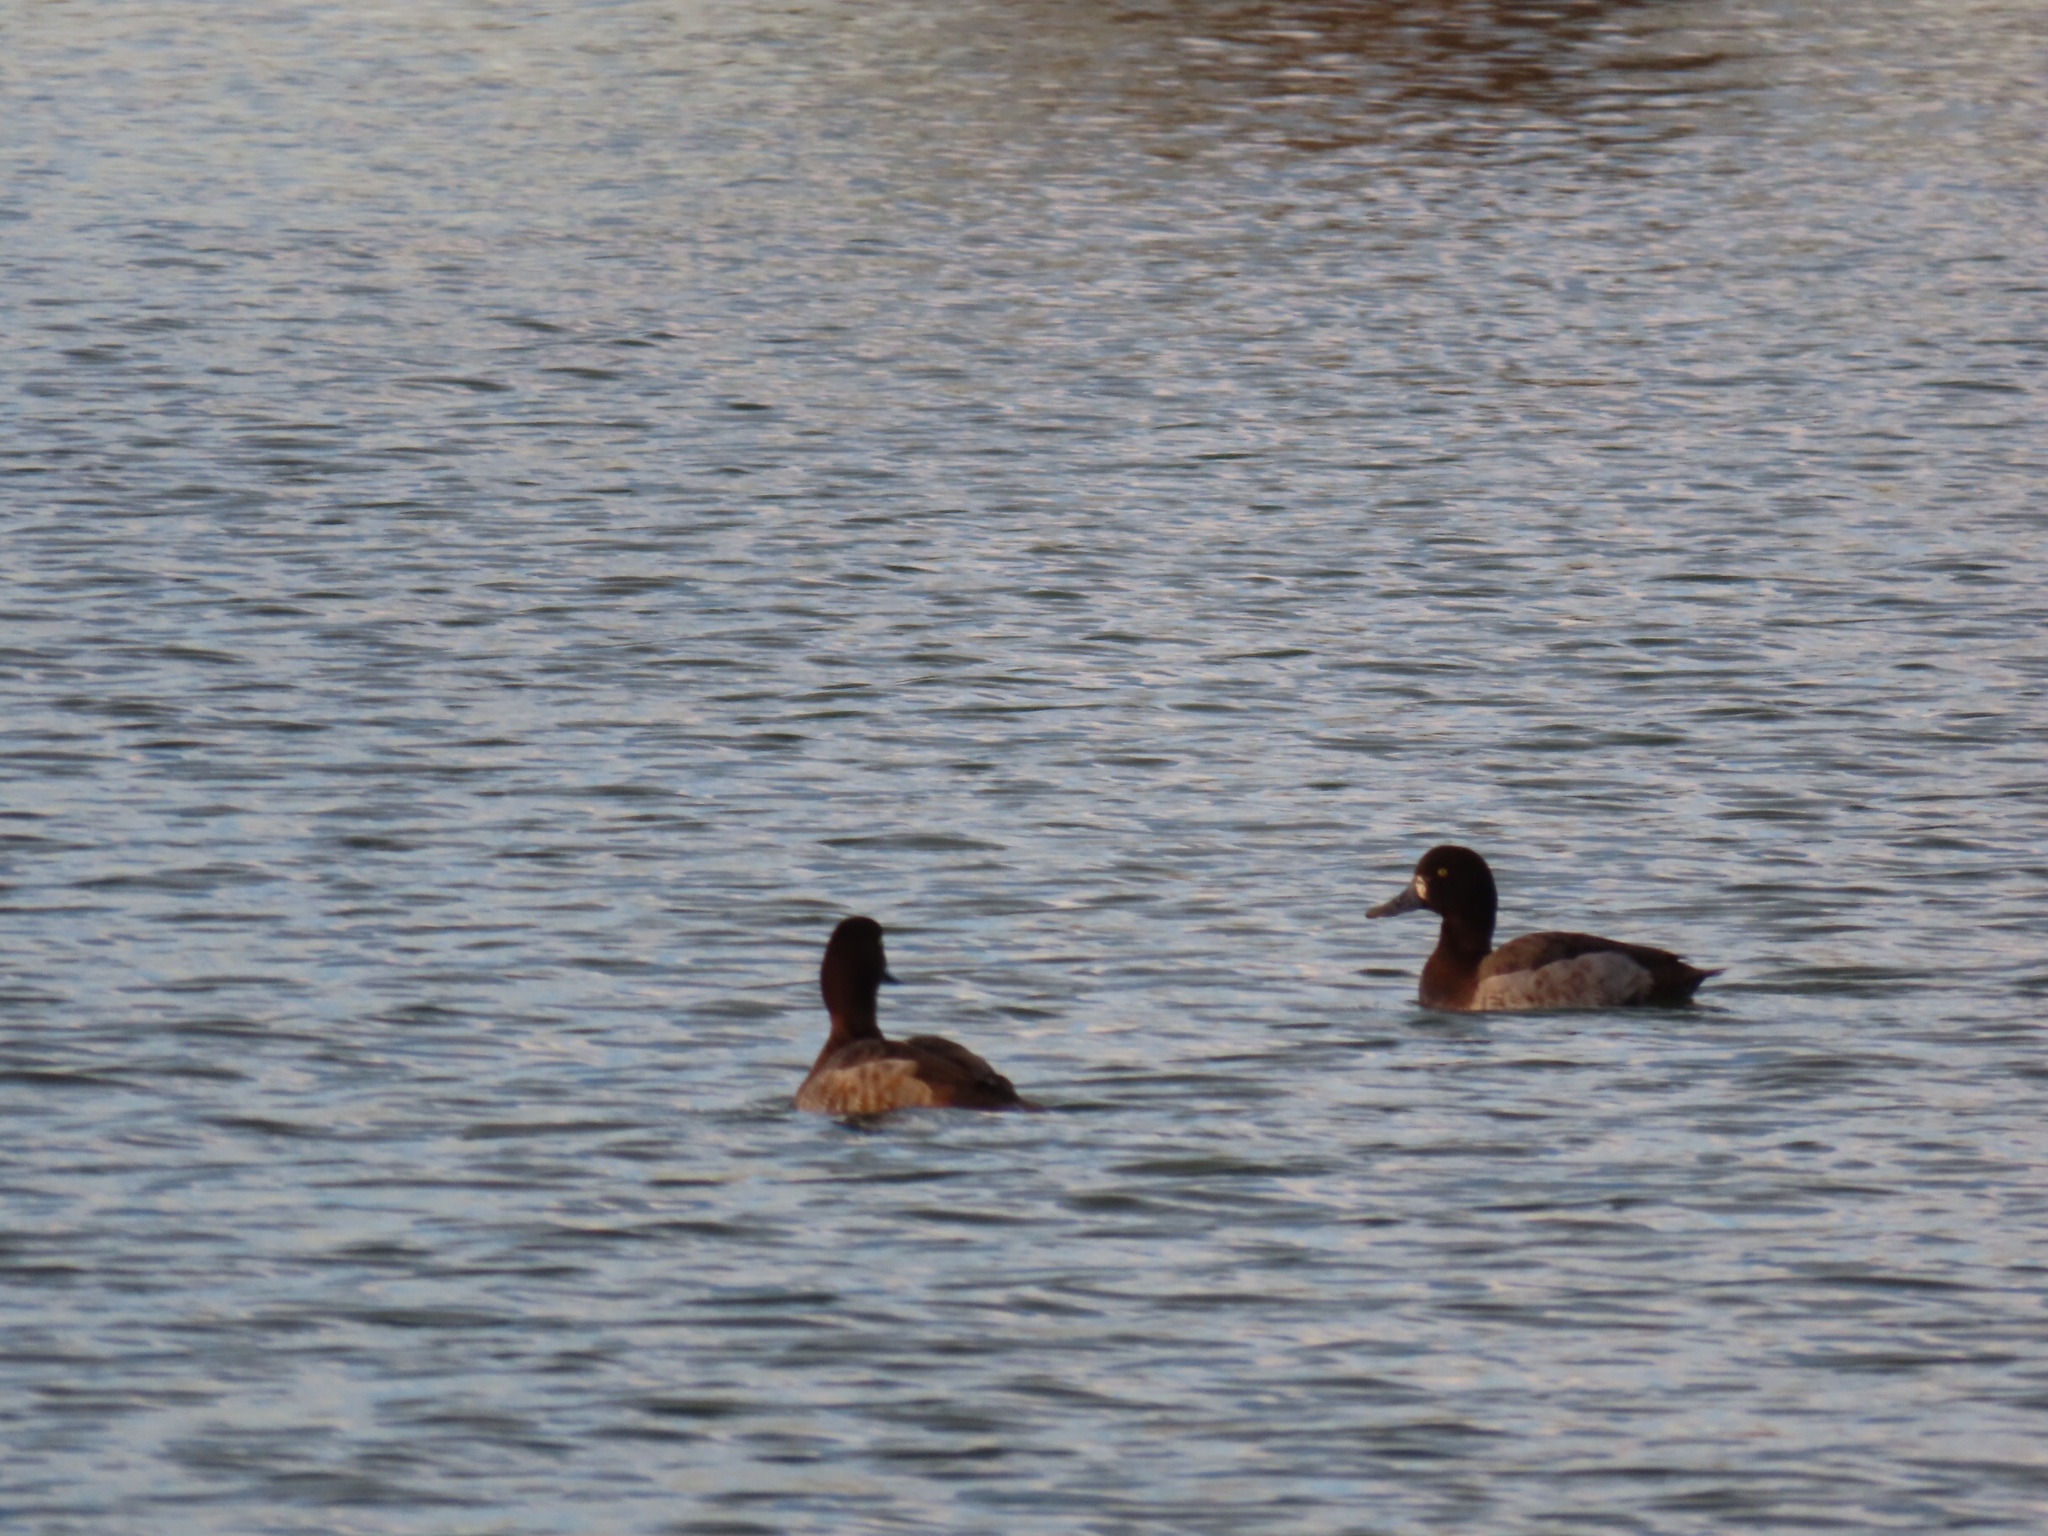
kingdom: Animalia
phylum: Chordata
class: Aves
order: Anseriformes
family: Anatidae
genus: Aythya
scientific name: Aythya marila
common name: Greater scaup
